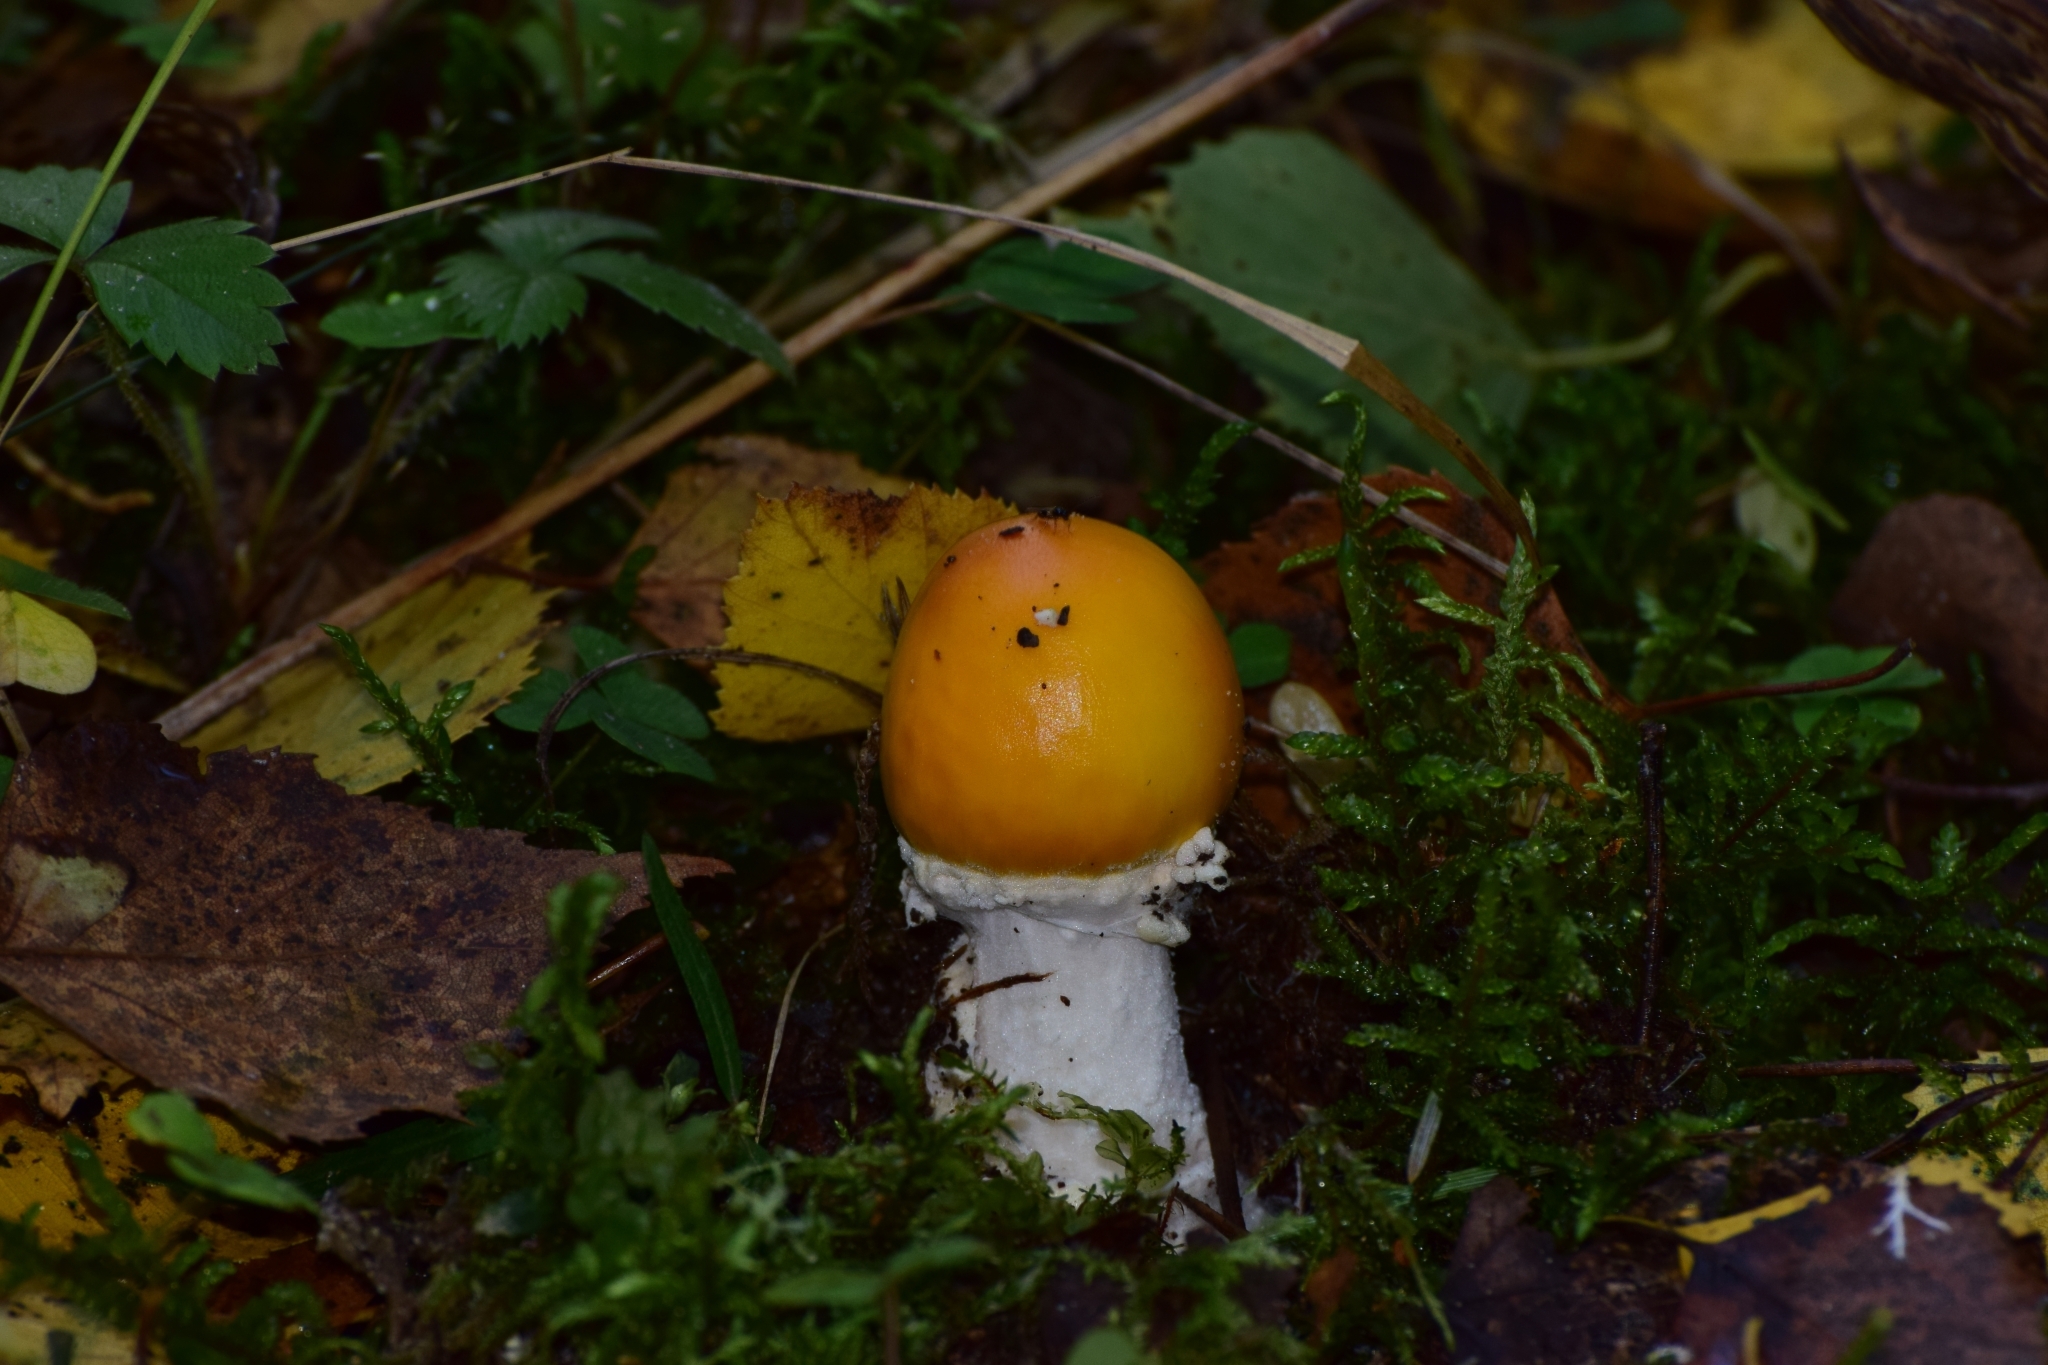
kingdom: Fungi
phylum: Basidiomycota
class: Agaricomycetes
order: Agaricales
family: Amanitaceae
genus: Amanita
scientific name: Amanita muscaria
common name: Fly agaric
